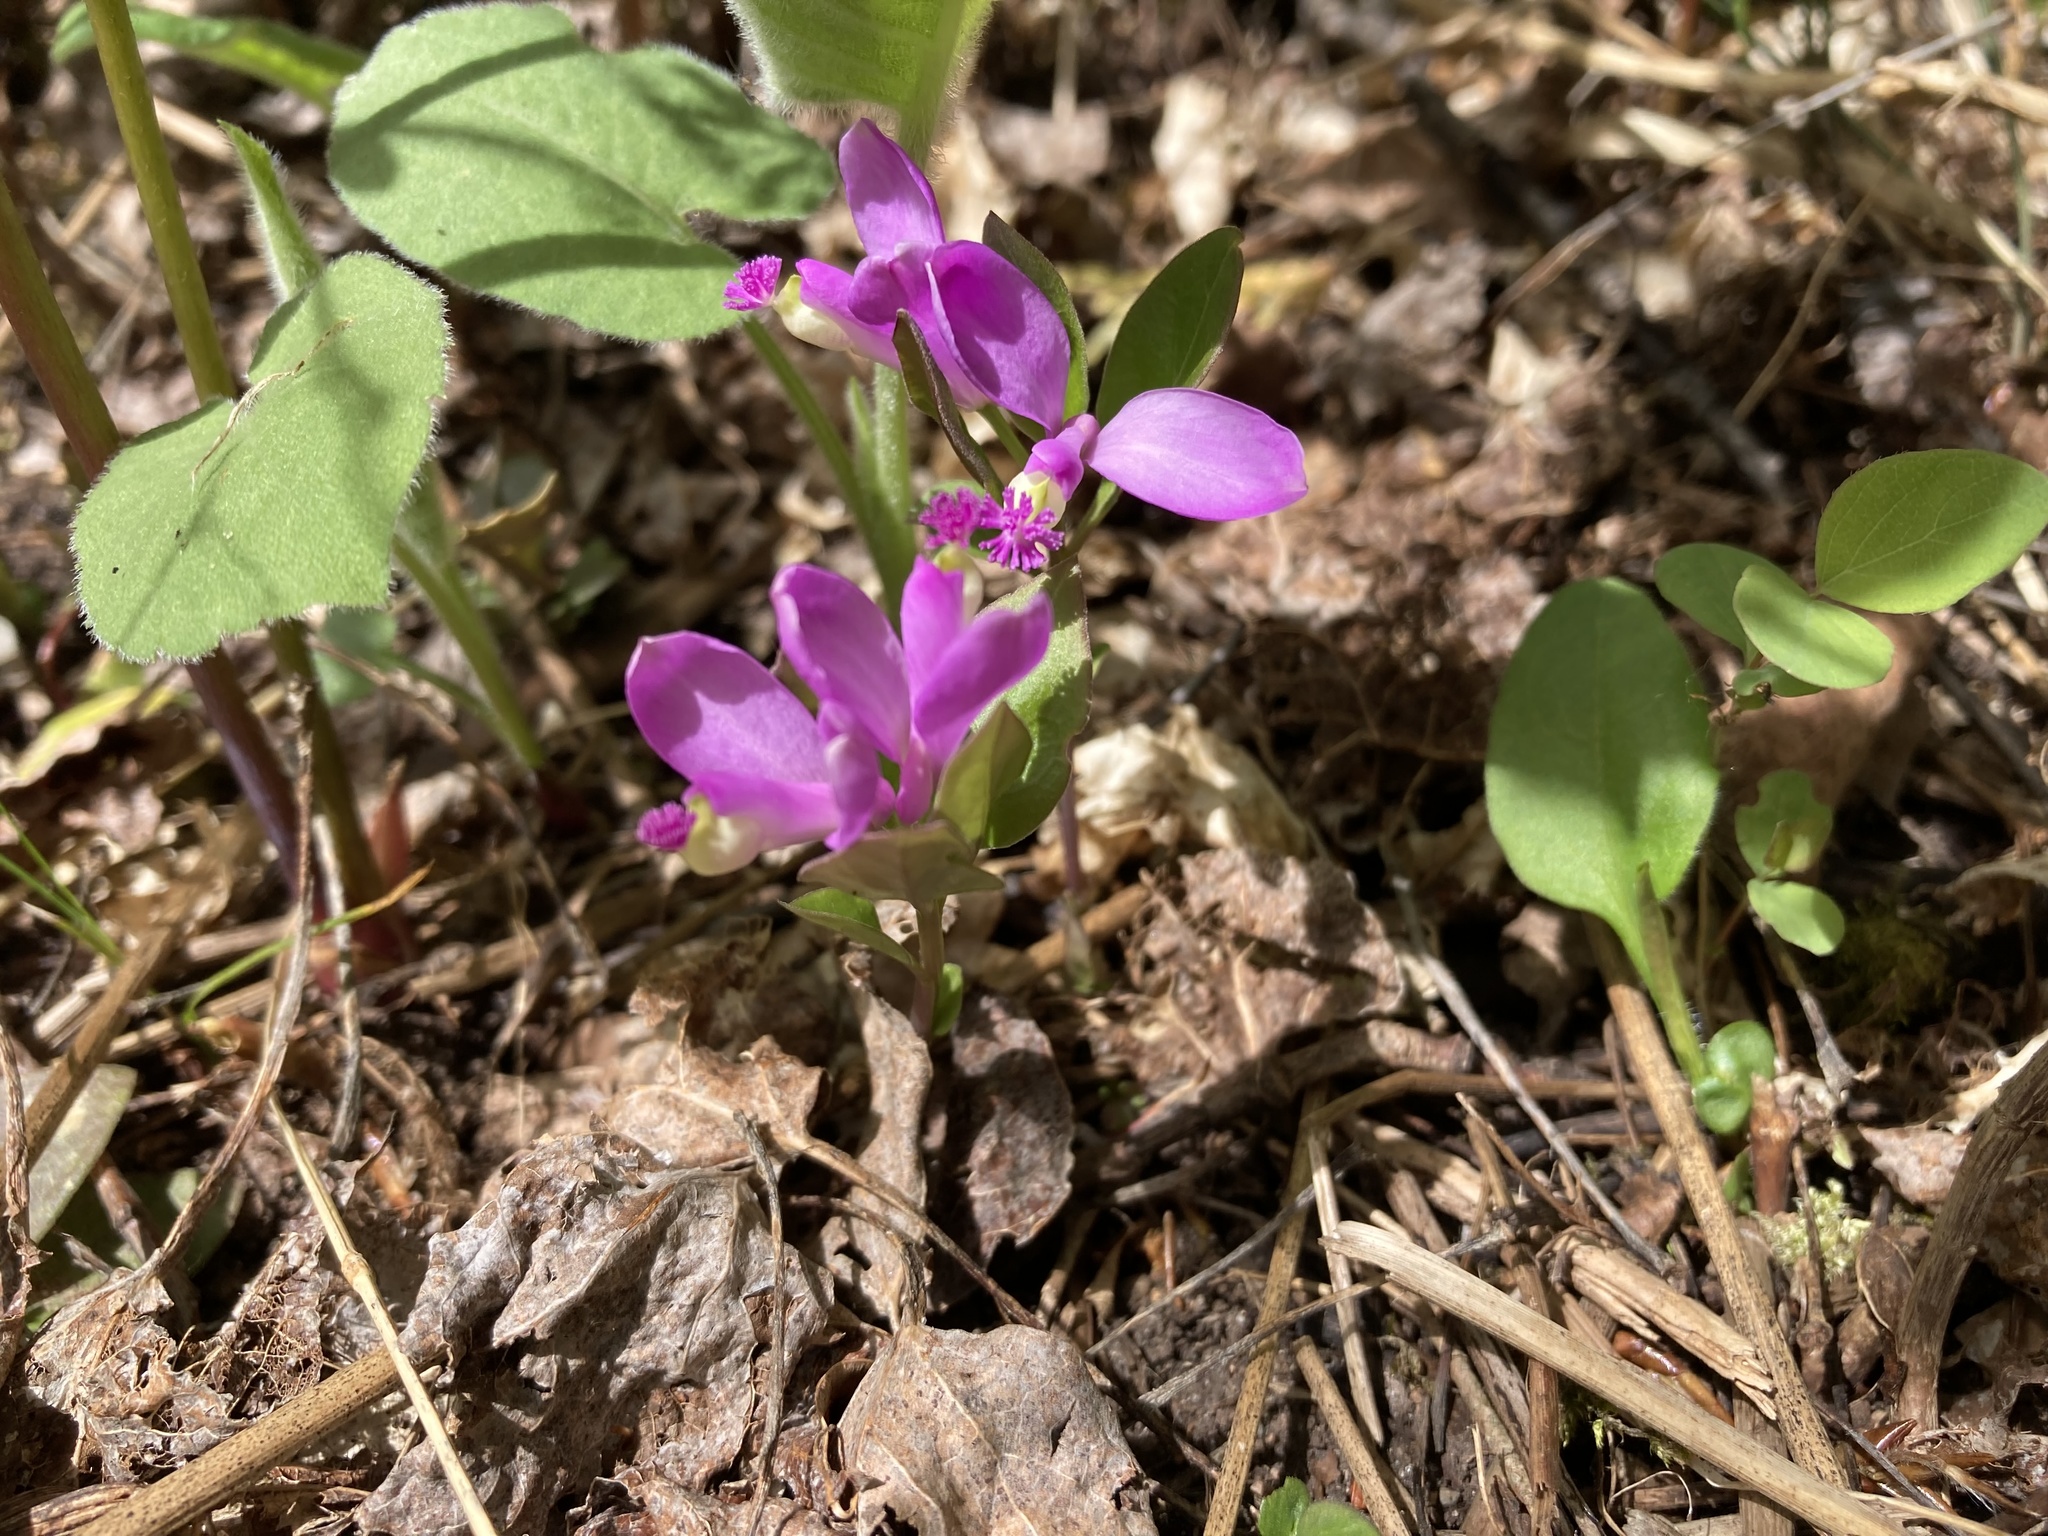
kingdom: Plantae
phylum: Tracheophyta
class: Magnoliopsida
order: Fabales
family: Polygalaceae
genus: Polygaloides
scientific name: Polygaloides paucifolia
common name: Bird-on-the-wing
